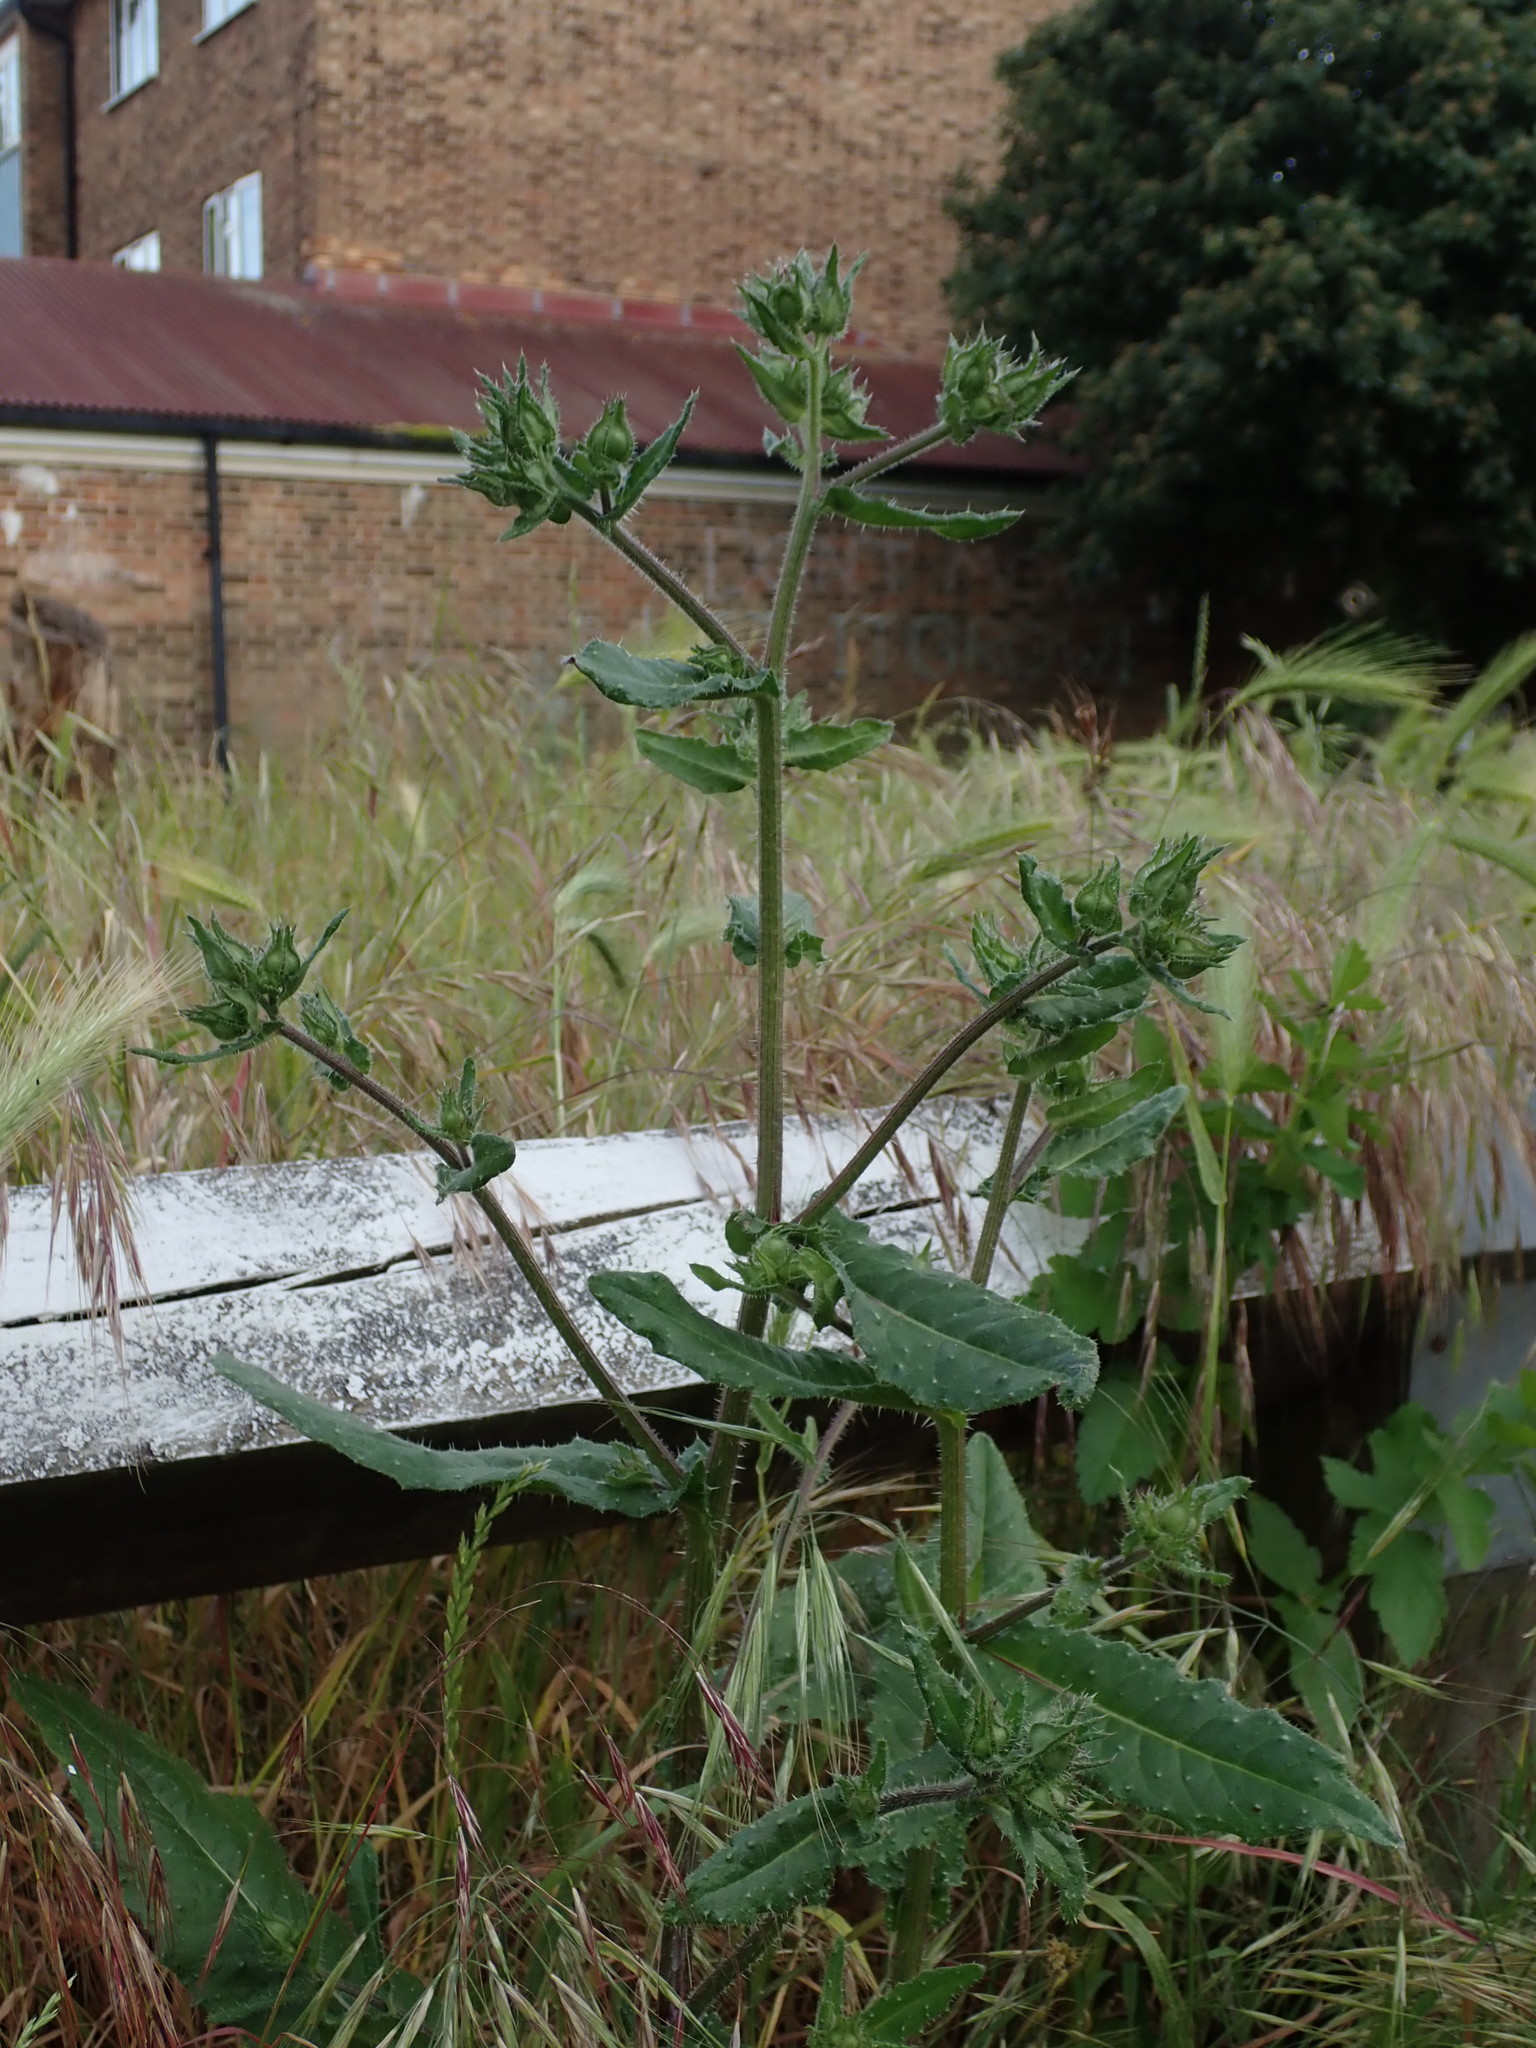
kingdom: Plantae
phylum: Tracheophyta
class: Magnoliopsida
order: Asterales
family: Asteraceae
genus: Helminthotheca
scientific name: Helminthotheca echioides
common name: Ox-tongue
